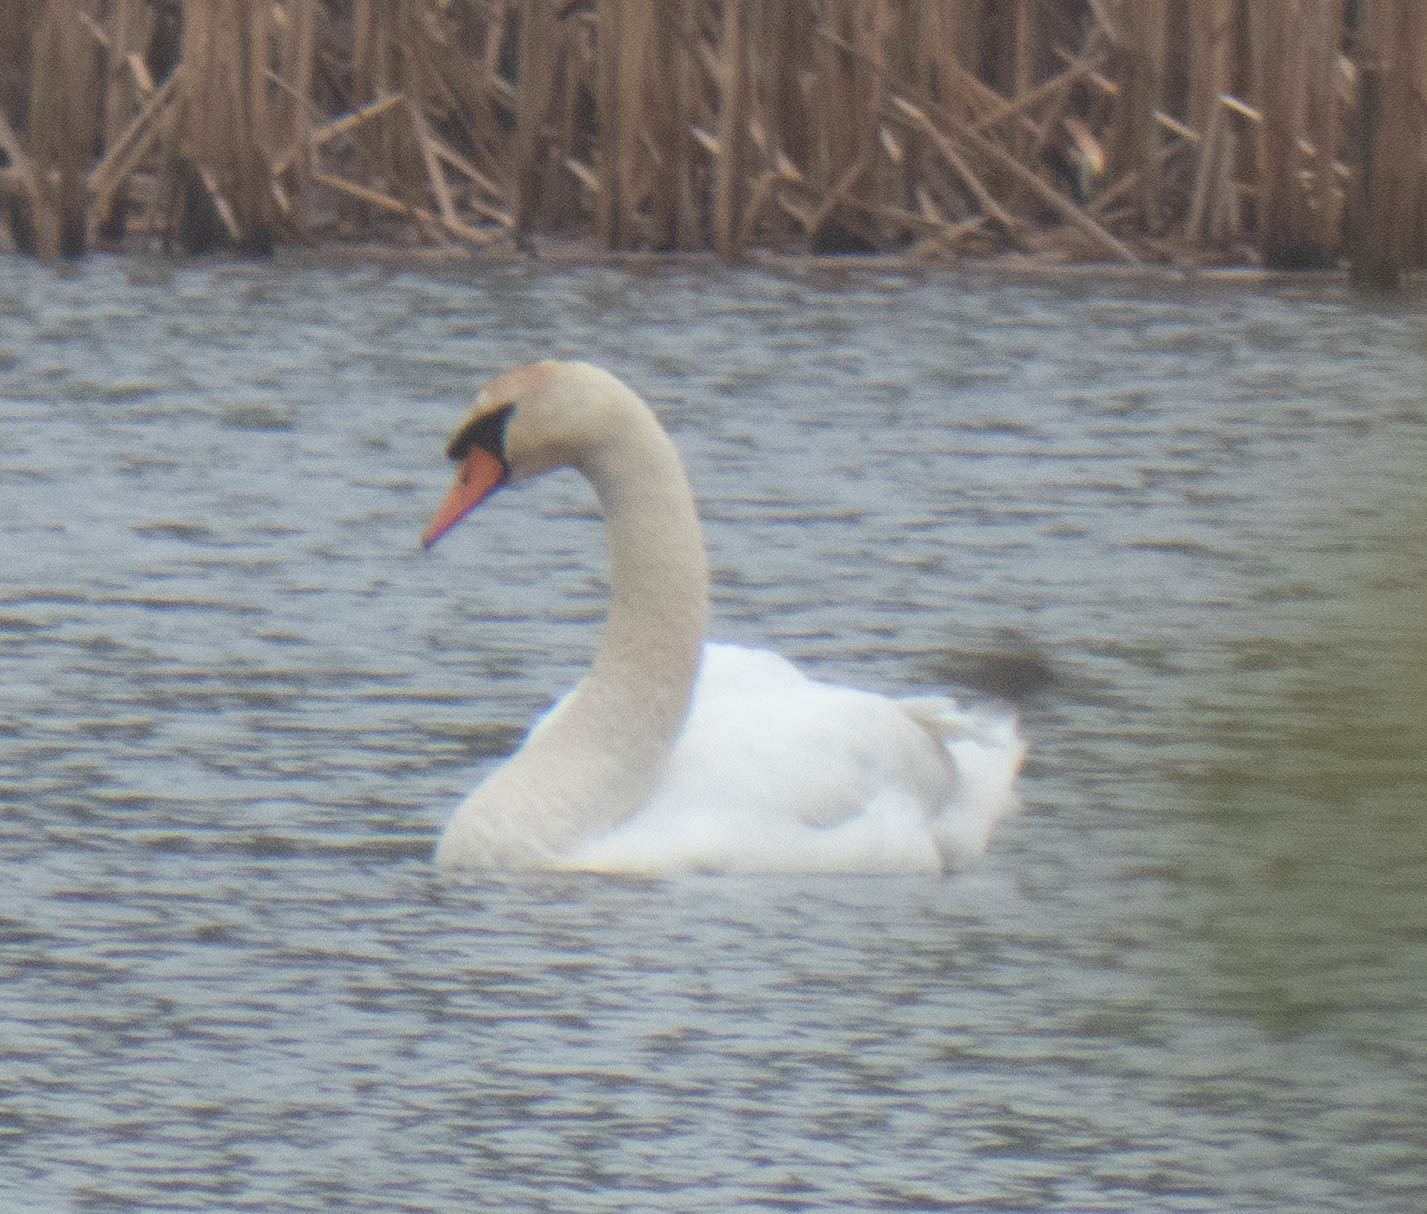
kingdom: Animalia
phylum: Chordata
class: Aves
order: Anseriformes
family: Anatidae
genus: Cygnus
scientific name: Cygnus olor
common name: Mute swan
